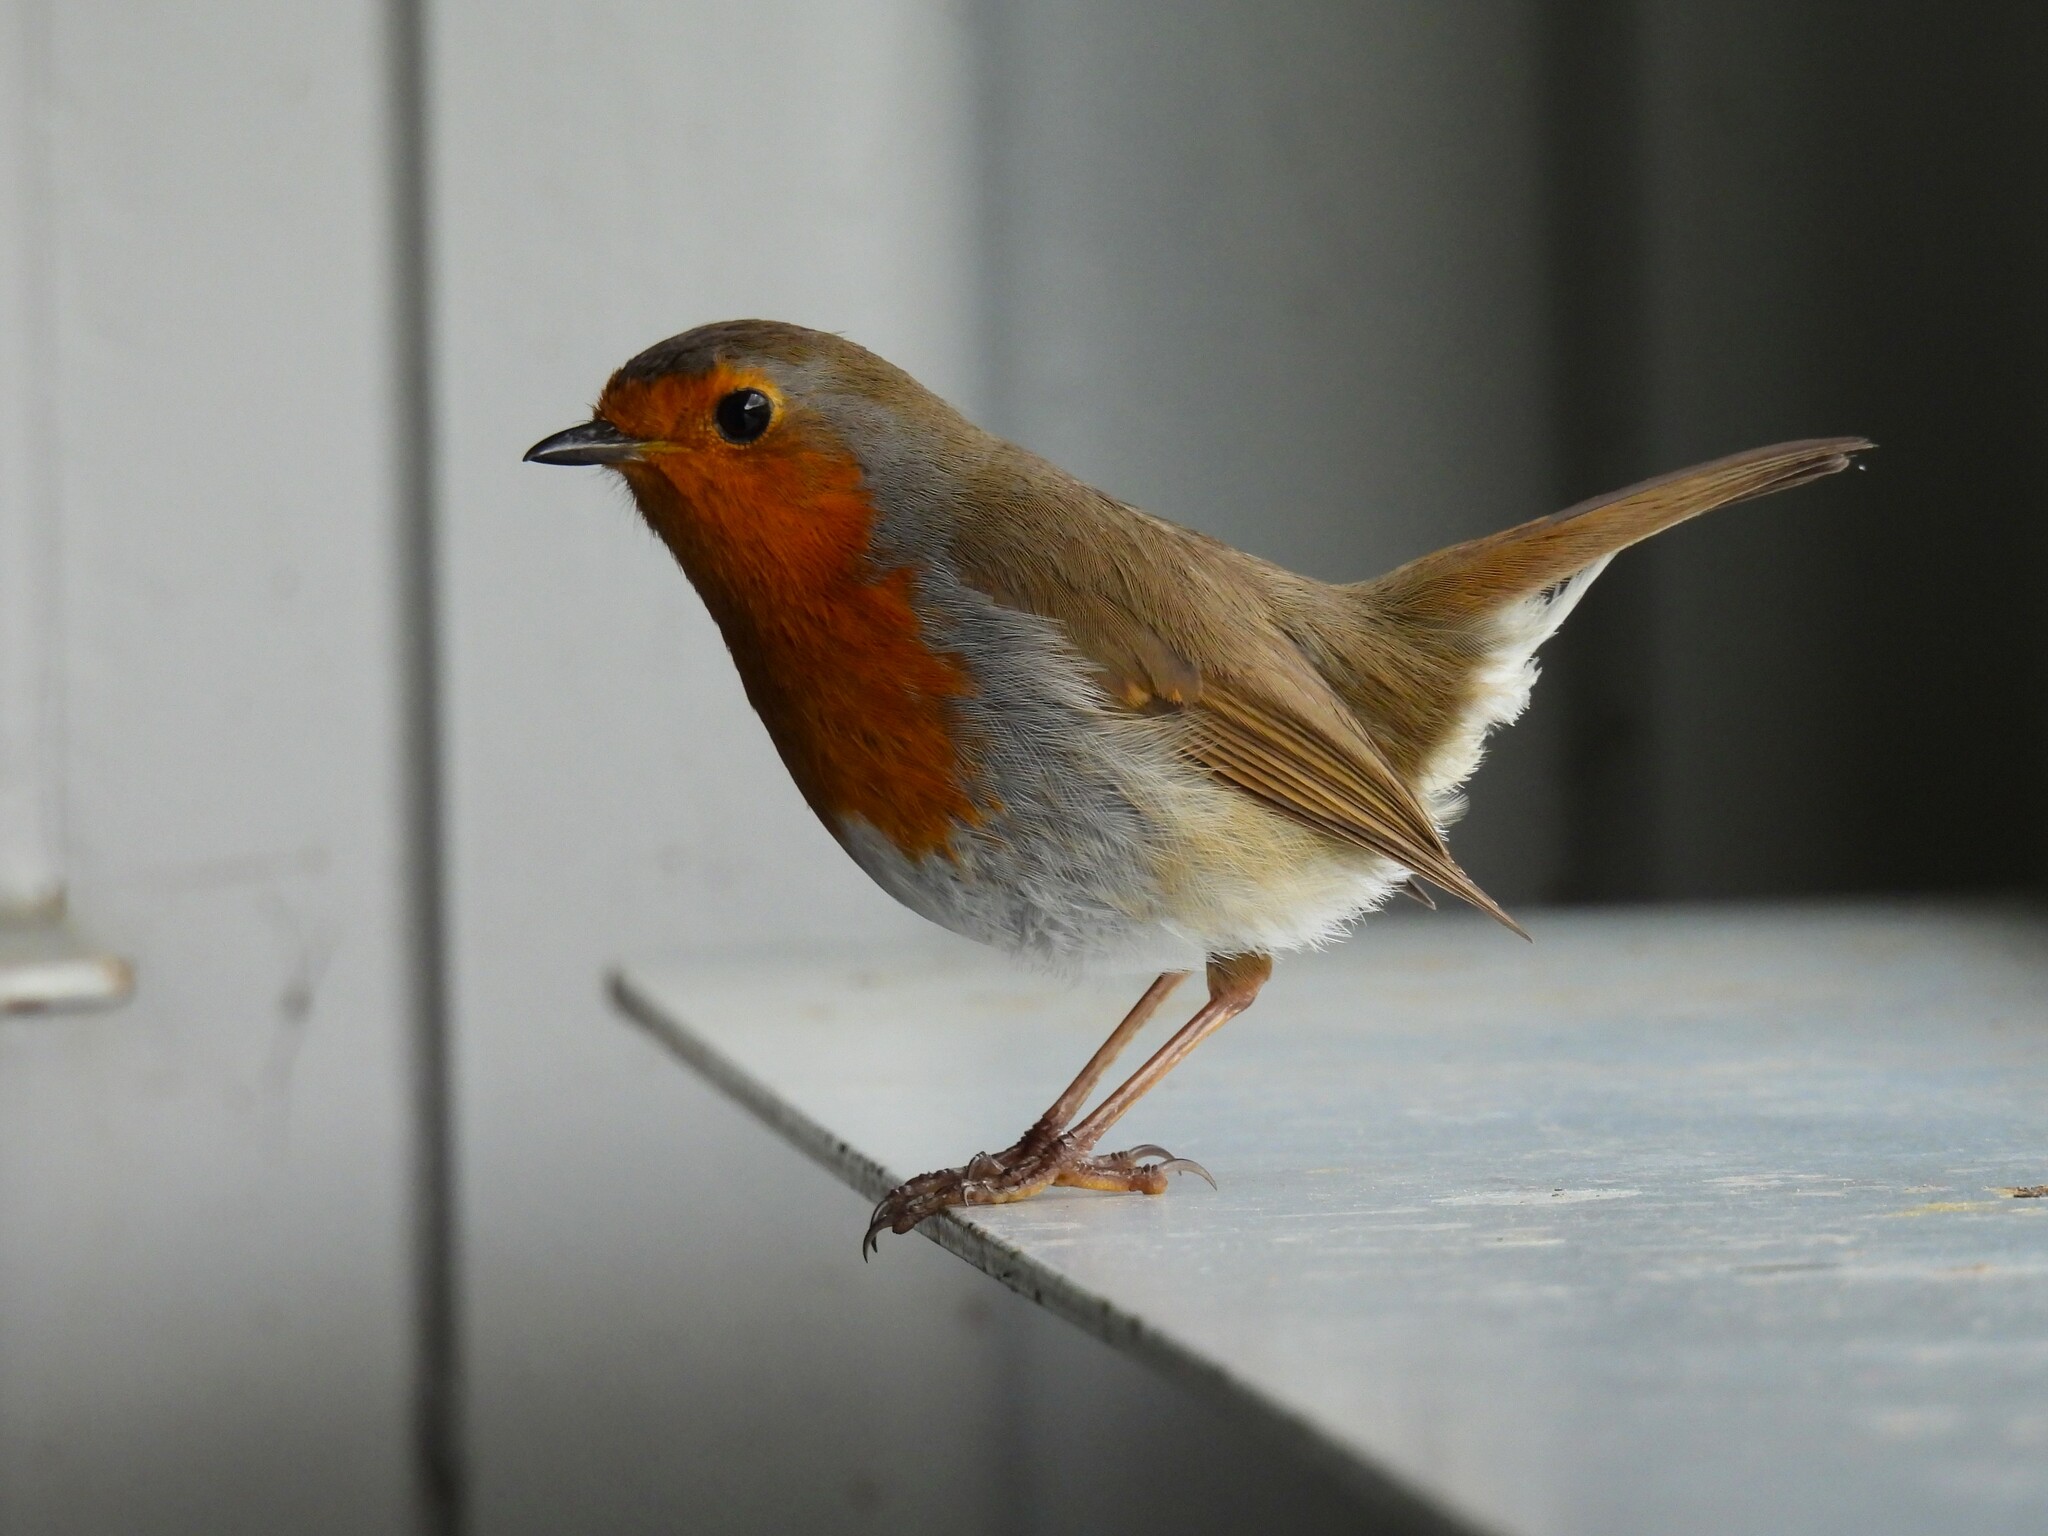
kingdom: Animalia
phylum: Chordata
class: Aves
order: Passeriformes
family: Muscicapidae
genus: Erithacus
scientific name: Erithacus rubecula
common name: European robin
